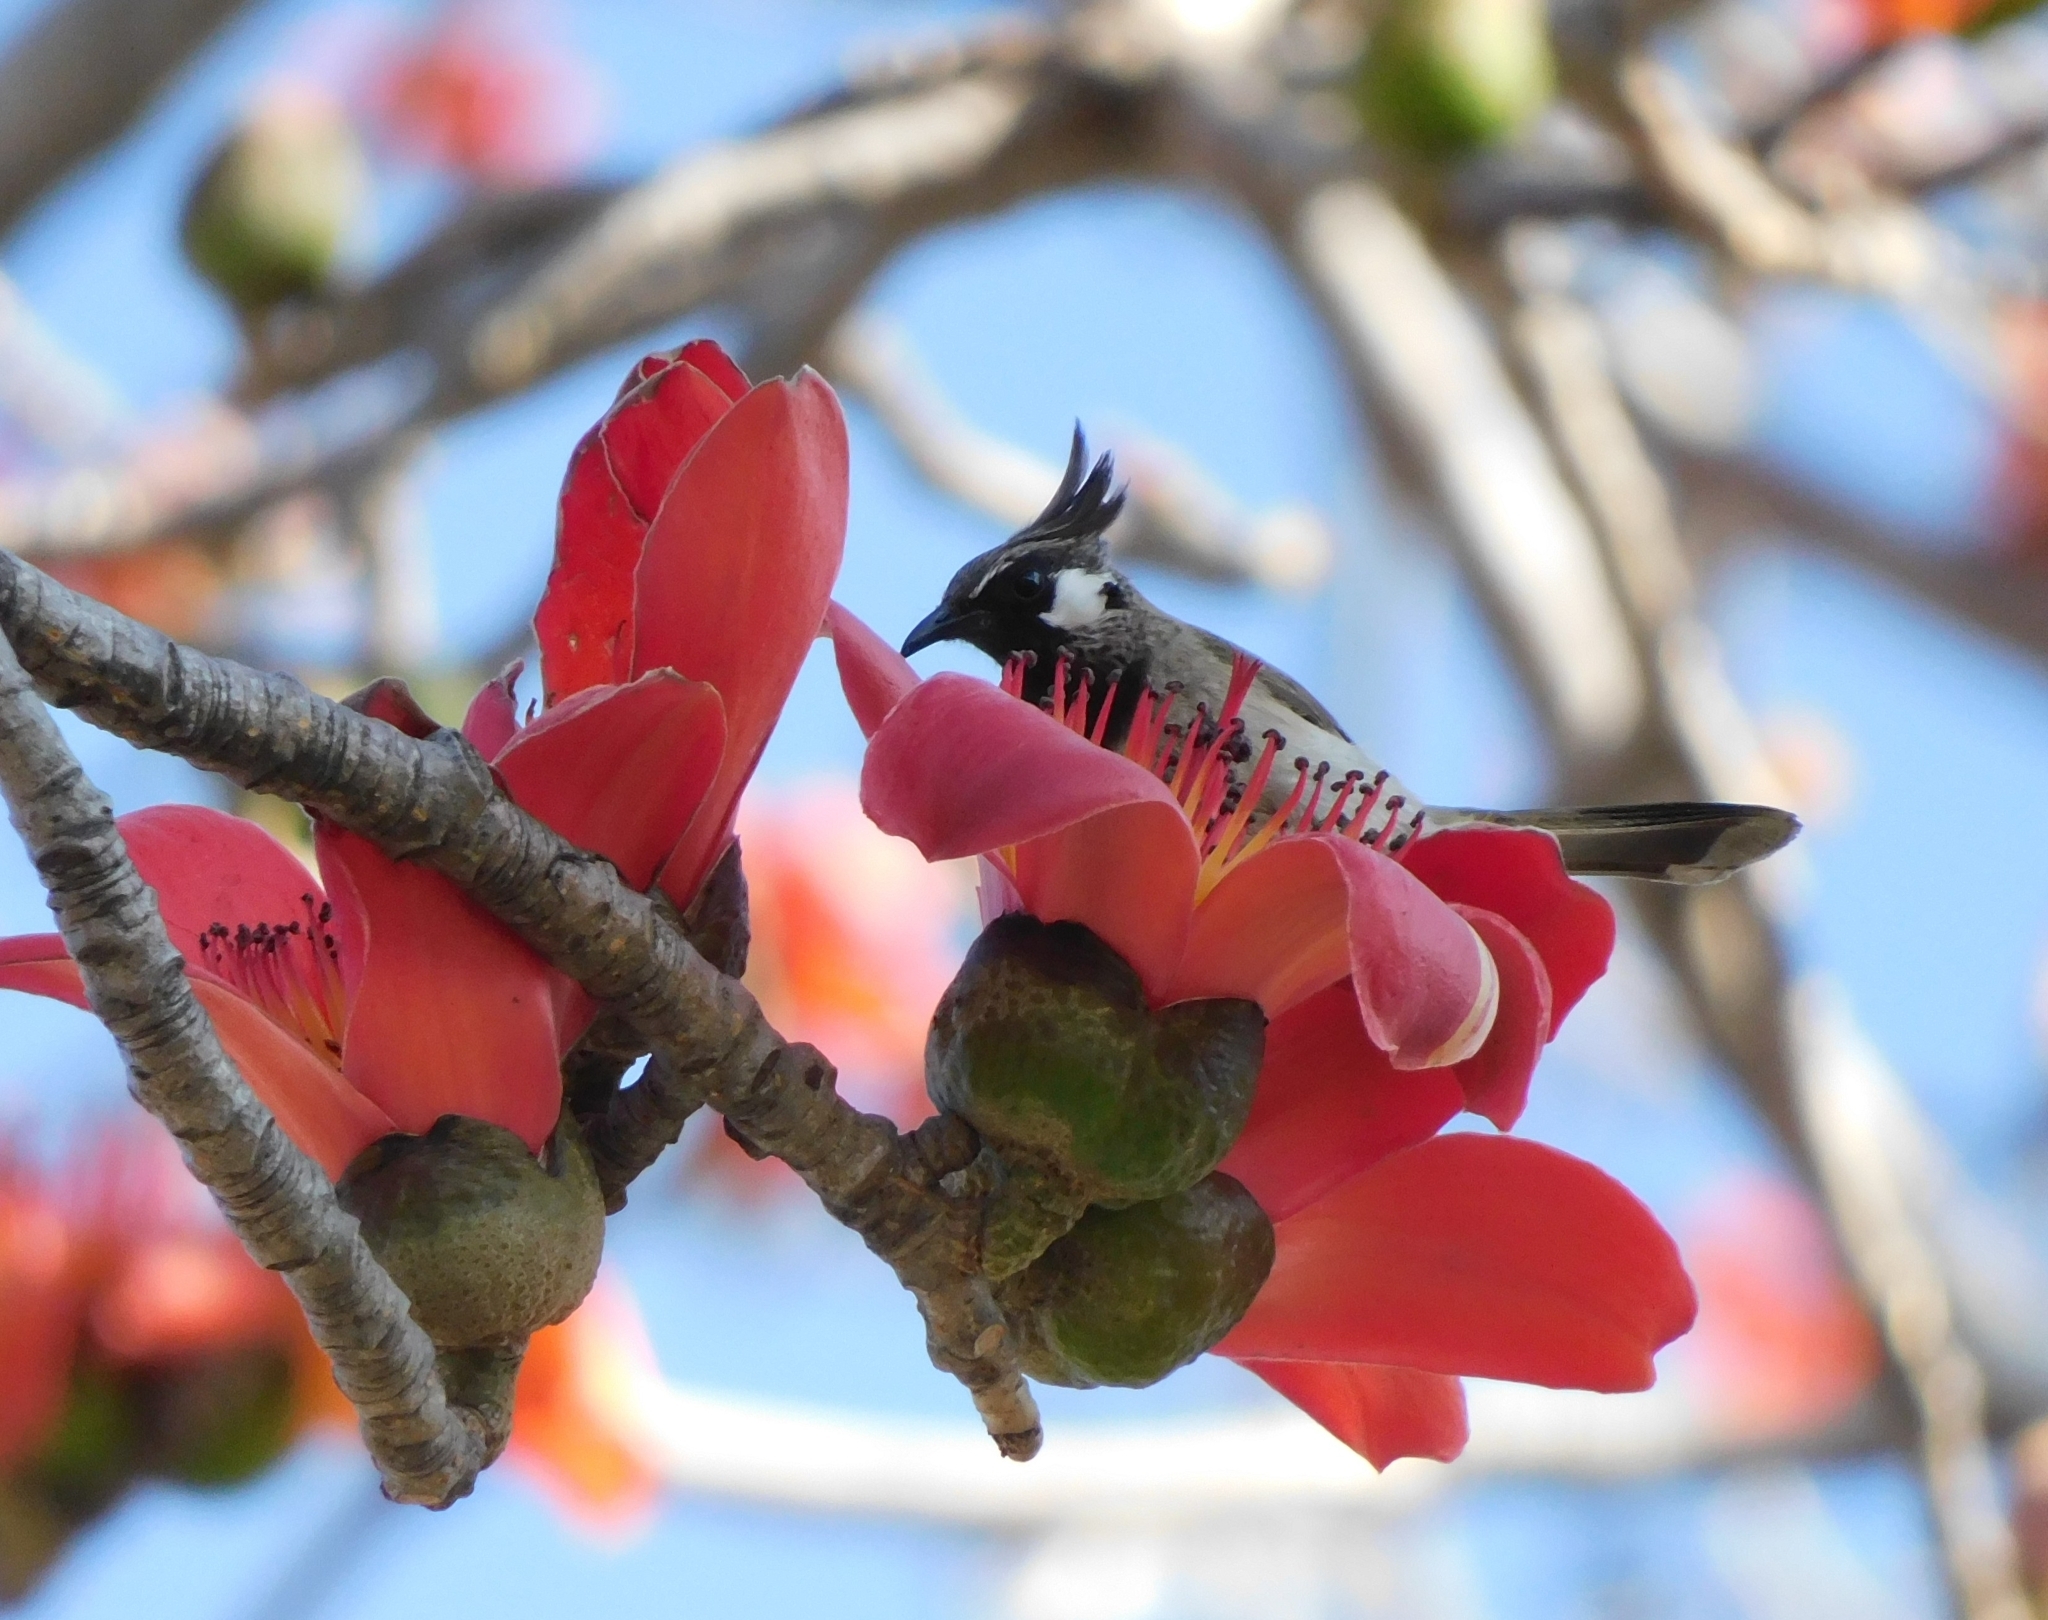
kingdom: Animalia
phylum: Chordata
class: Aves
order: Passeriformes
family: Pycnonotidae
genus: Pycnonotus
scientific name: Pycnonotus leucogenys
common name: Himalayan bulbul
